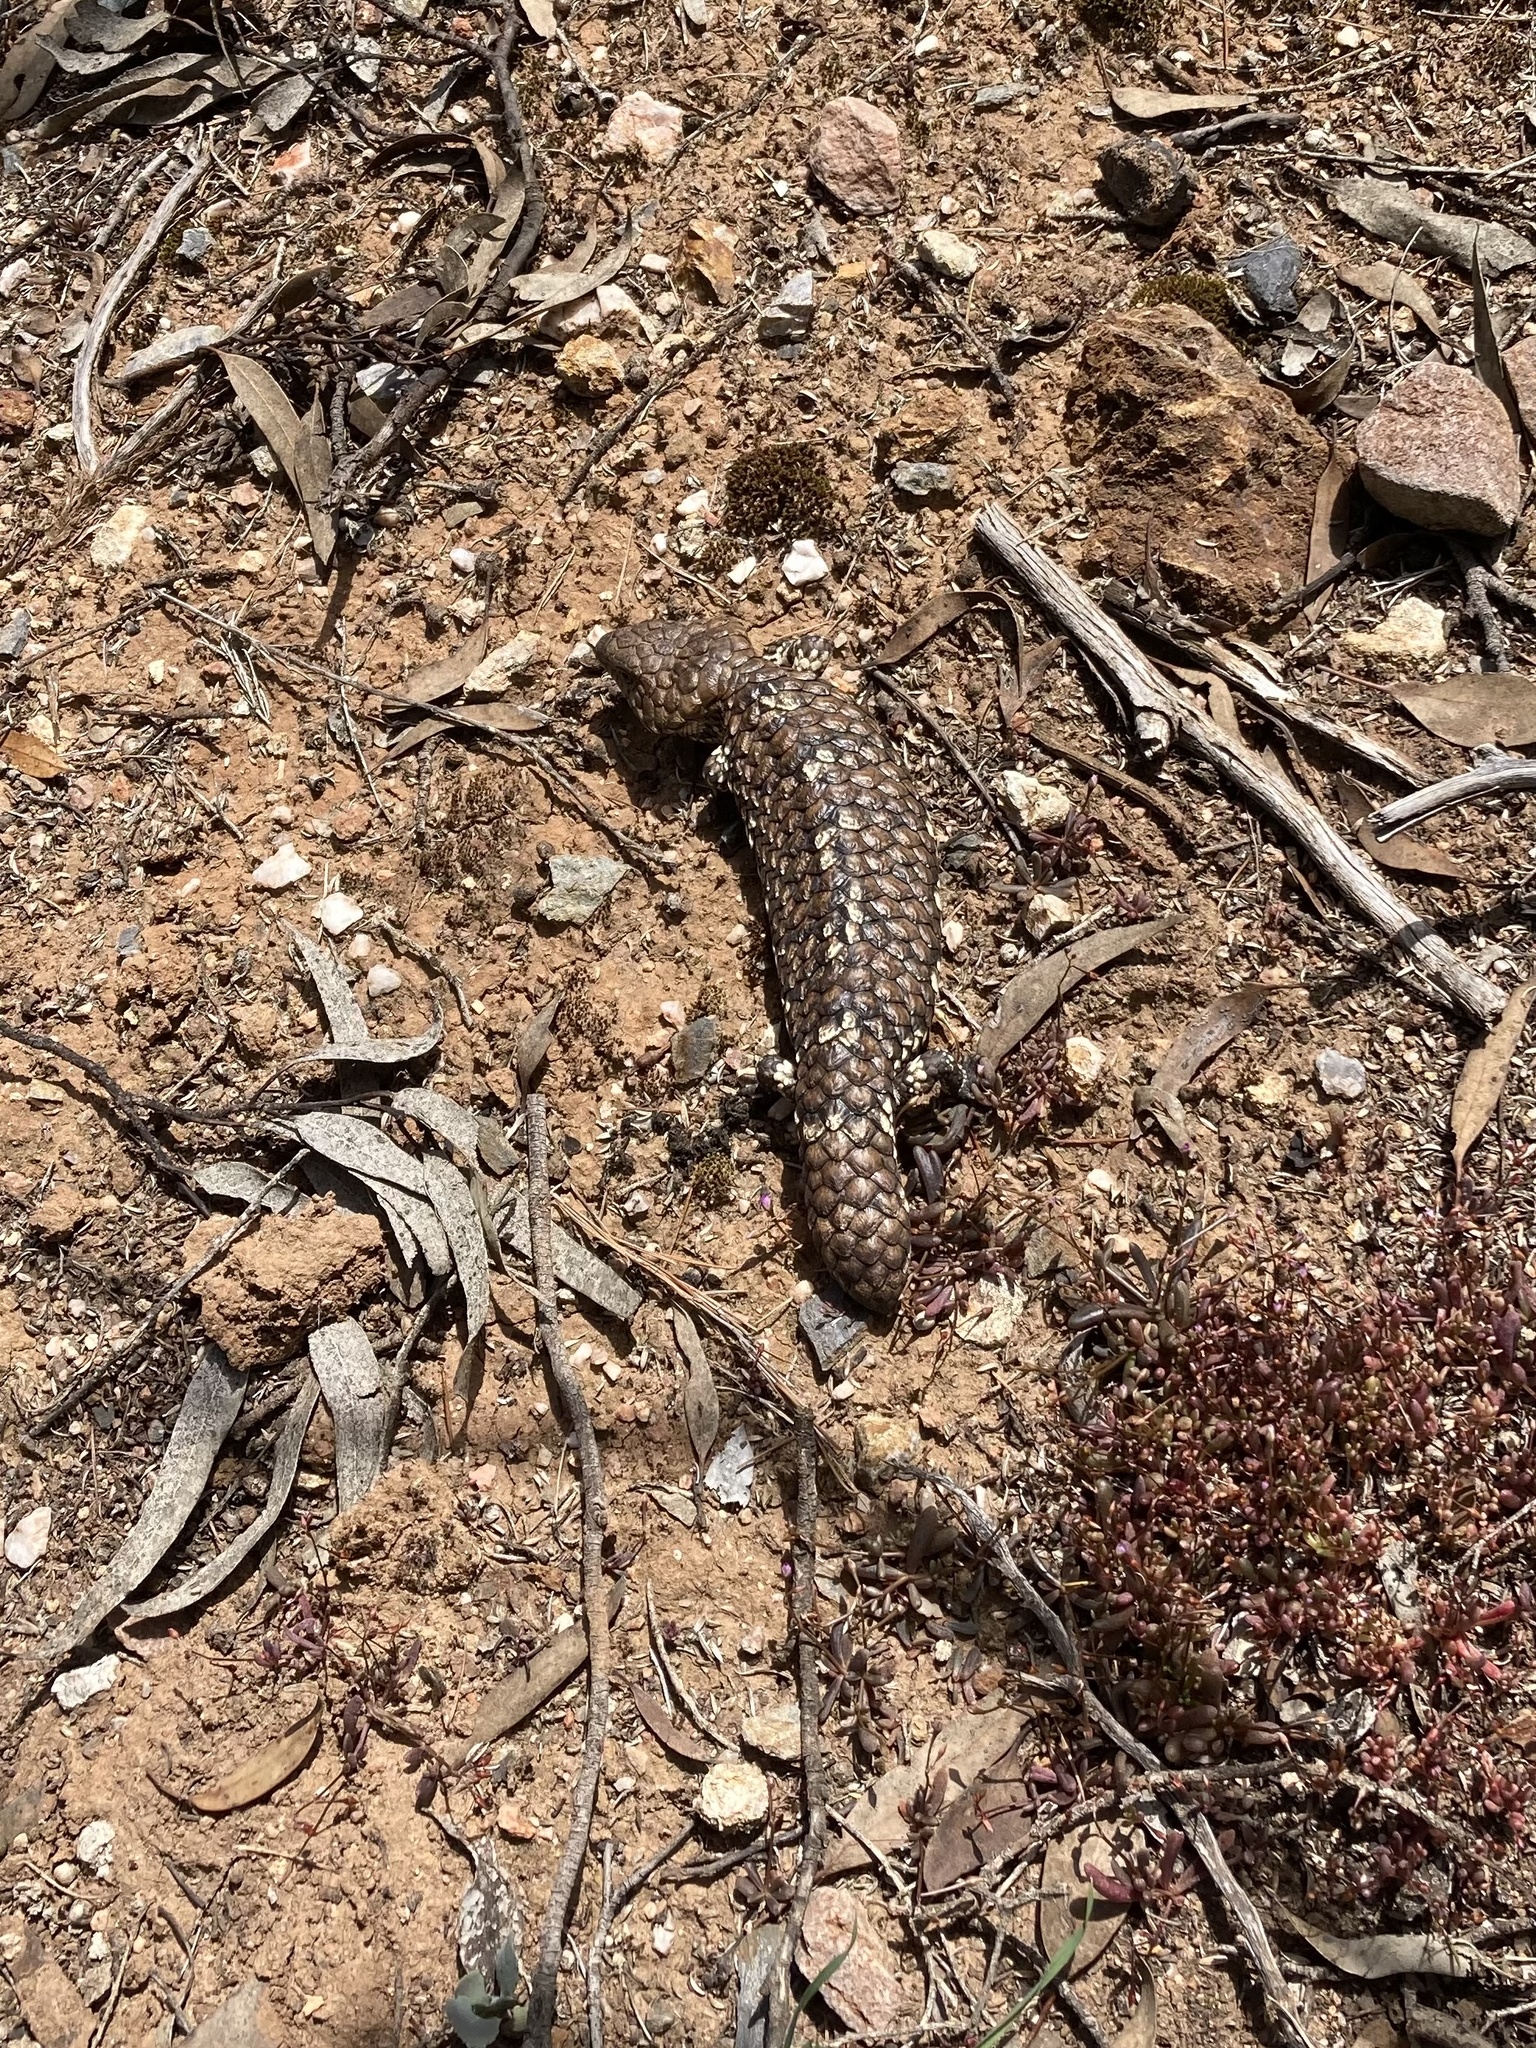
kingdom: Animalia
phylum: Chordata
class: Squamata
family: Scincidae
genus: Tiliqua
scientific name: Tiliqua rugosa
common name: Pinecone lizard
